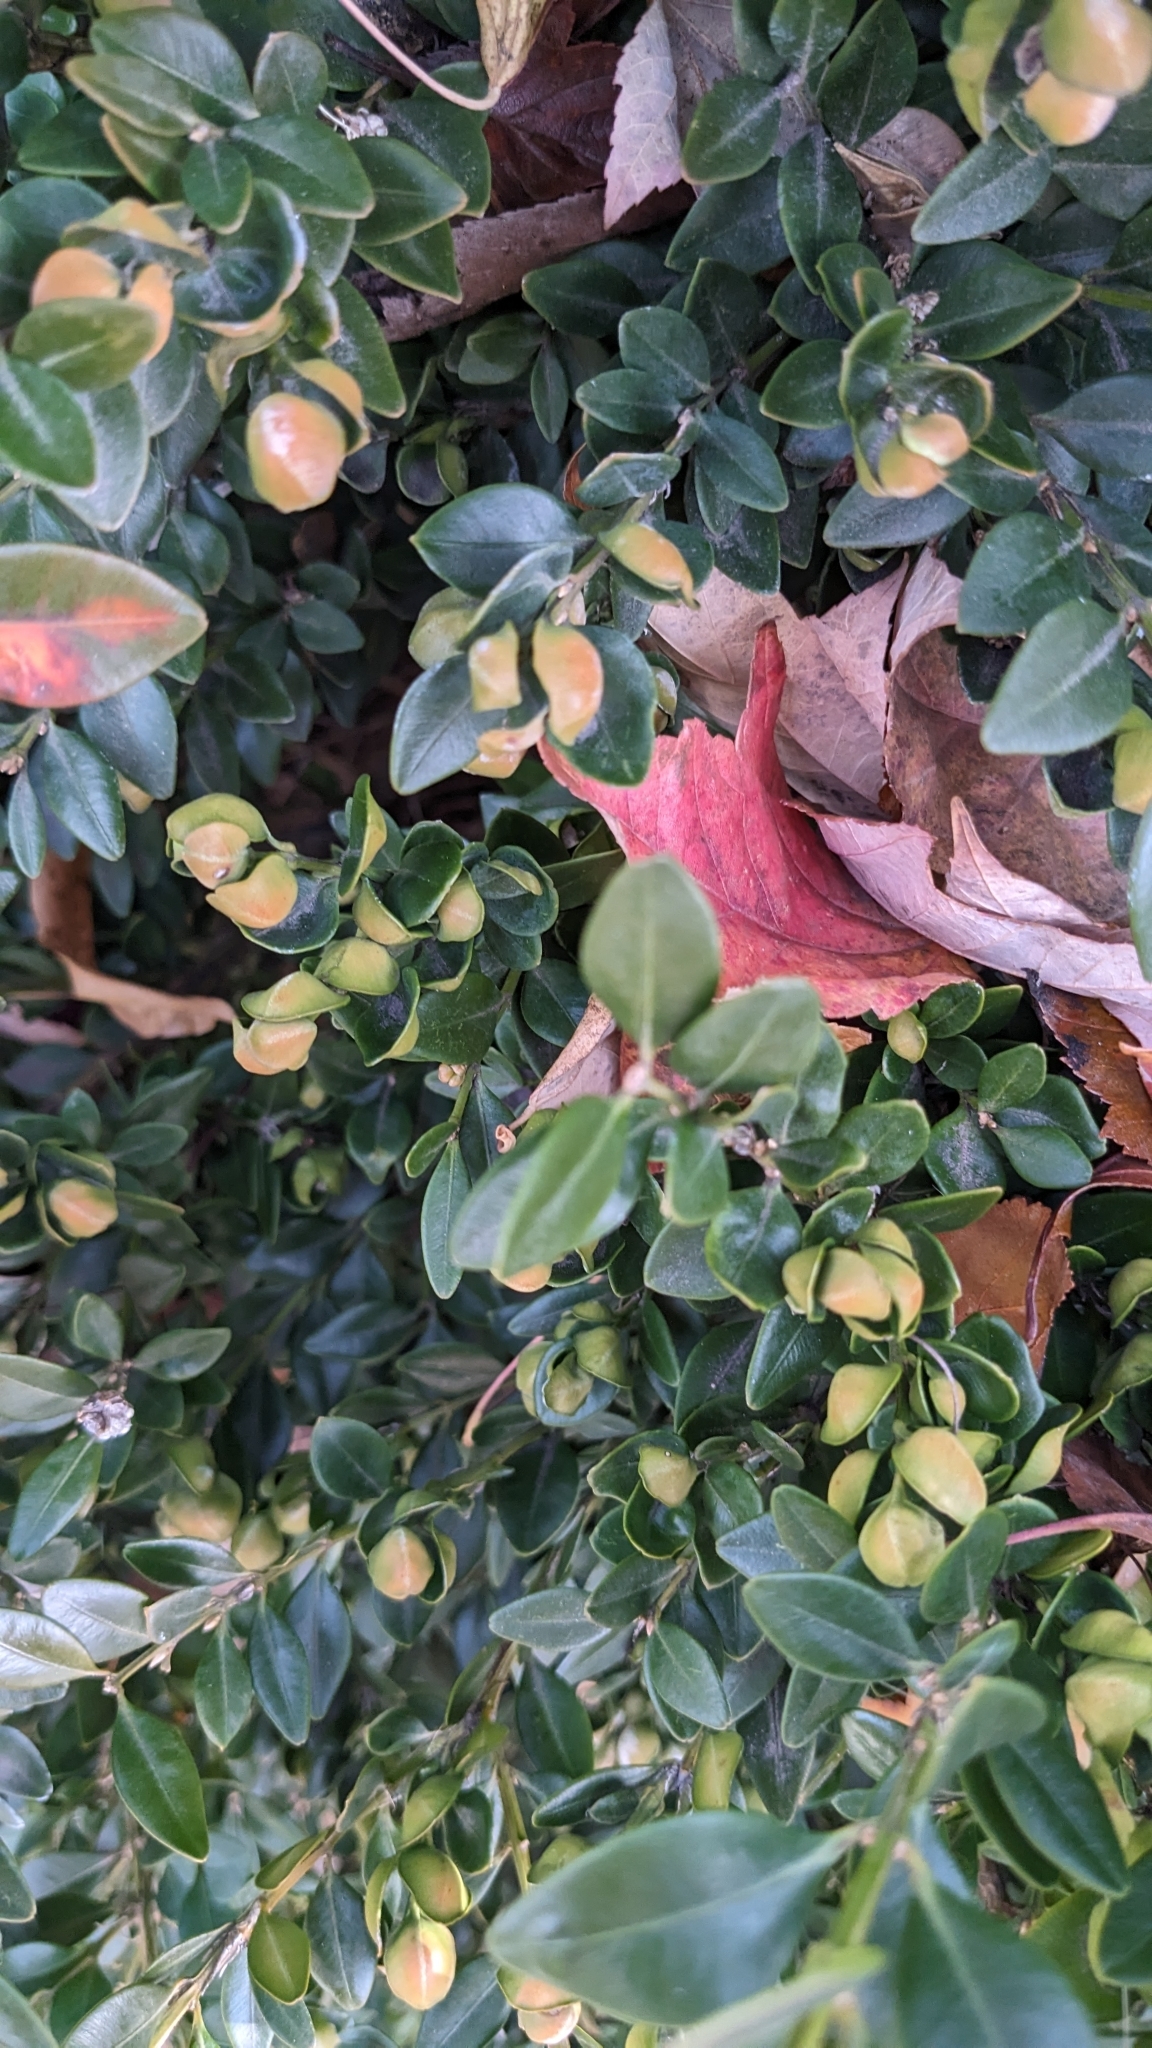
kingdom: Animalia
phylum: Arthropoda
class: Insecta
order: Hemiptera
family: Psyllidae
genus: Psylla
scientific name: Psylla buxi
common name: Boxwood psyllid
